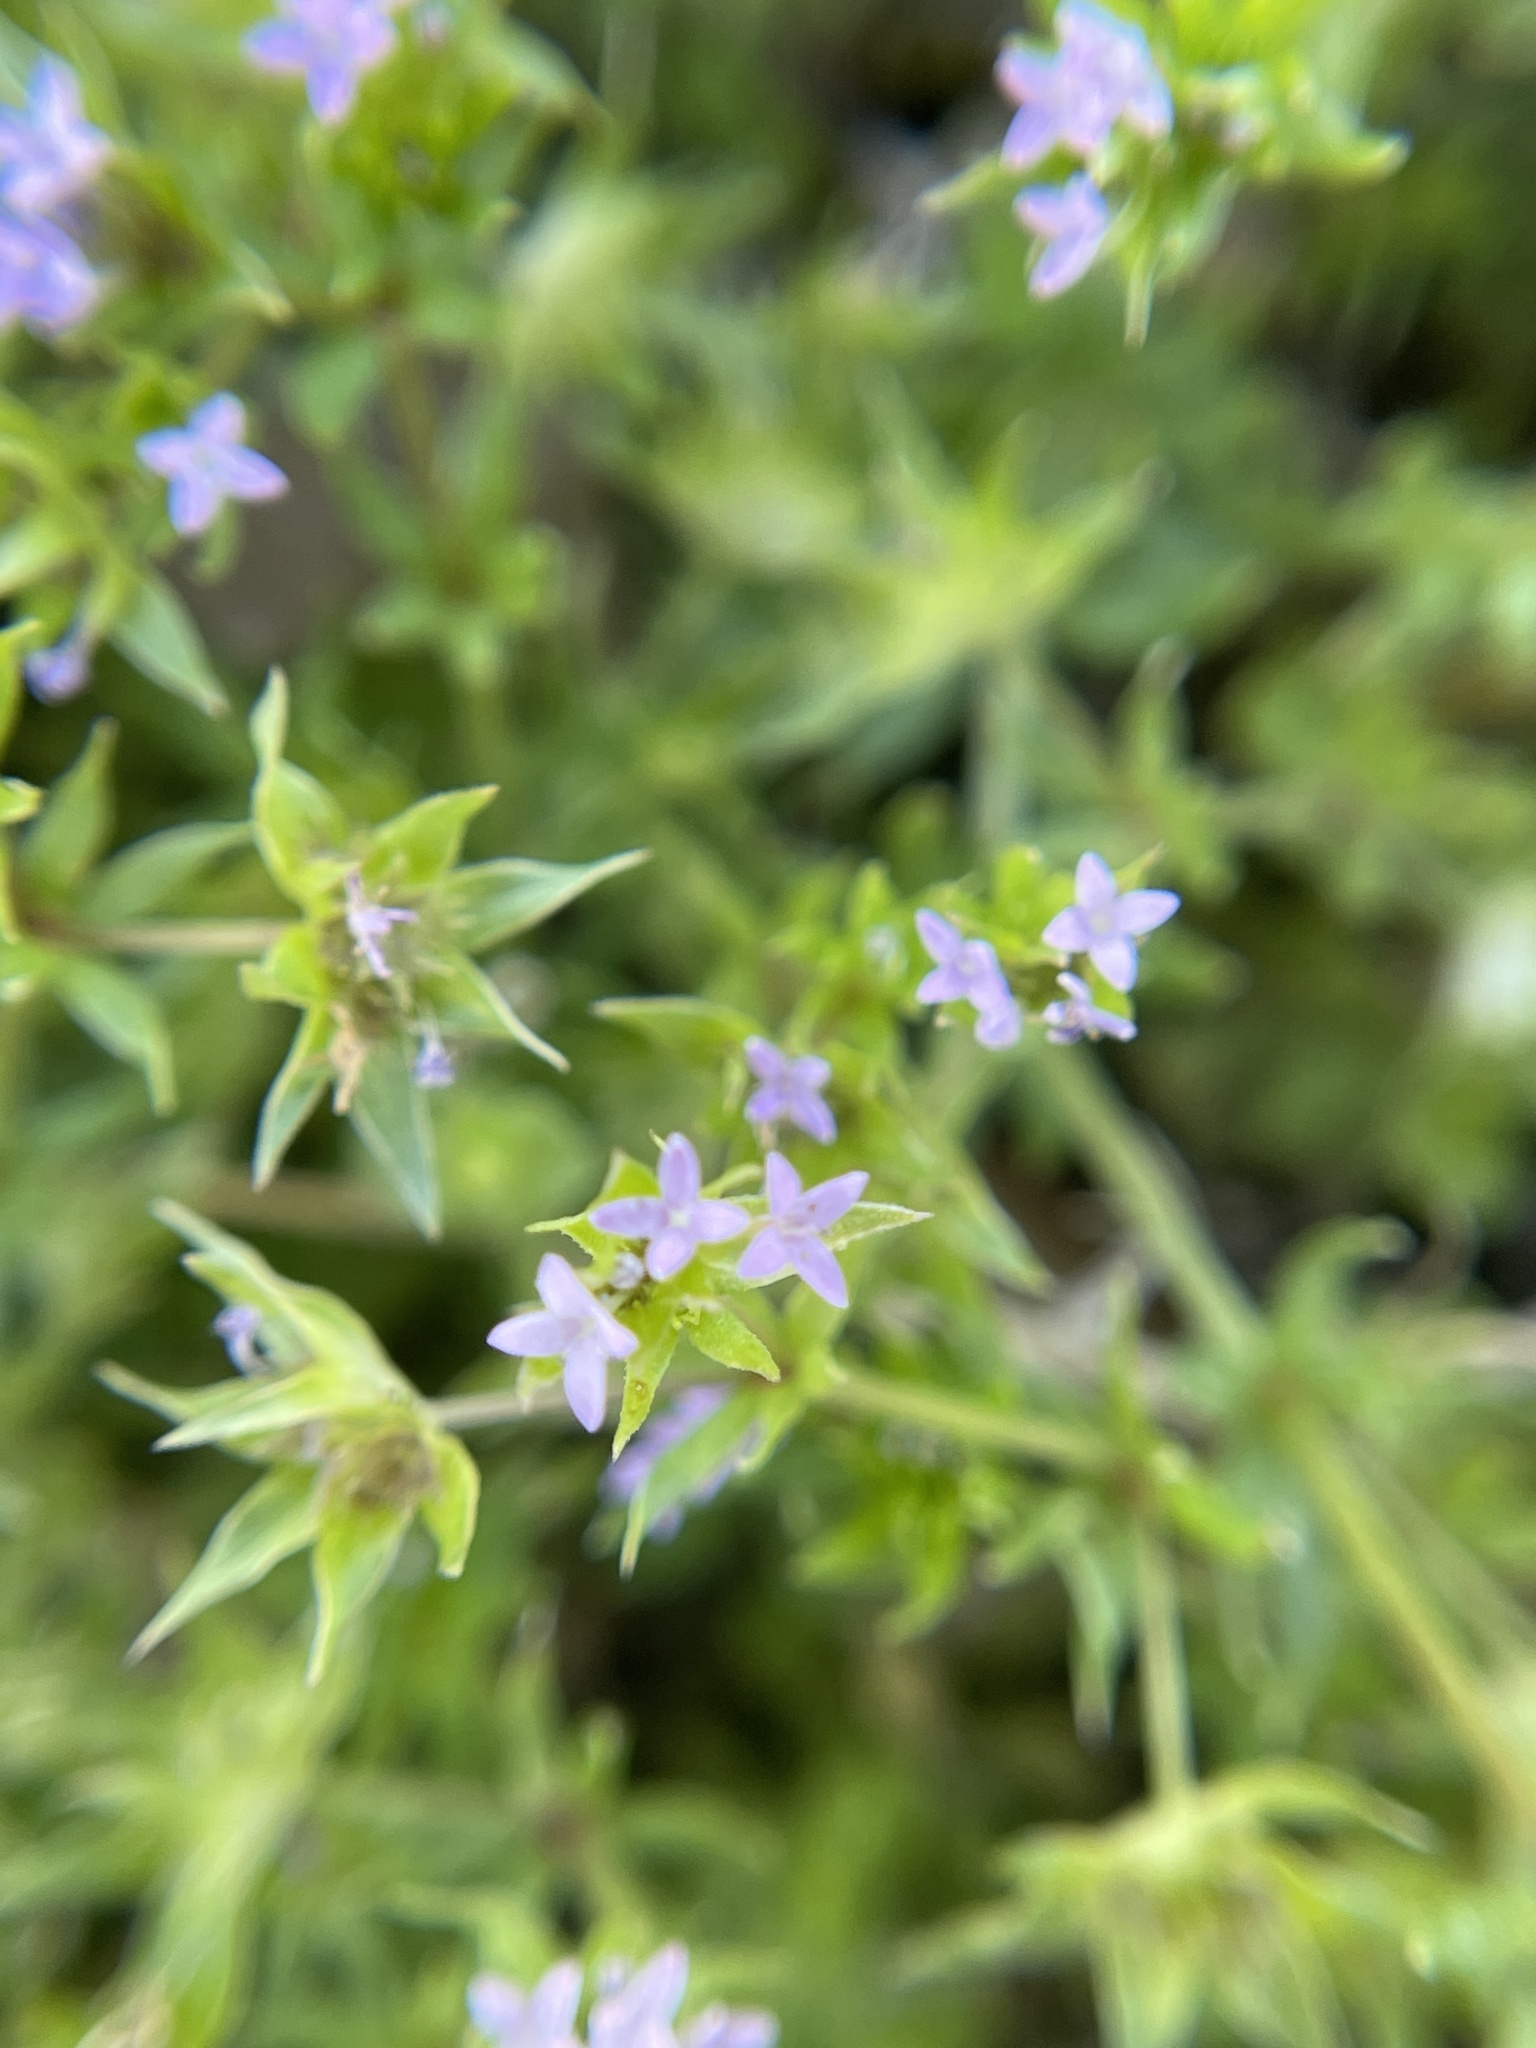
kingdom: Plantae
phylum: Tracheophyta
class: Magnoliopsida
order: Gentianales
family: Rubiaceae
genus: Sherardia
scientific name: Sherardia arvensis
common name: Field madder
